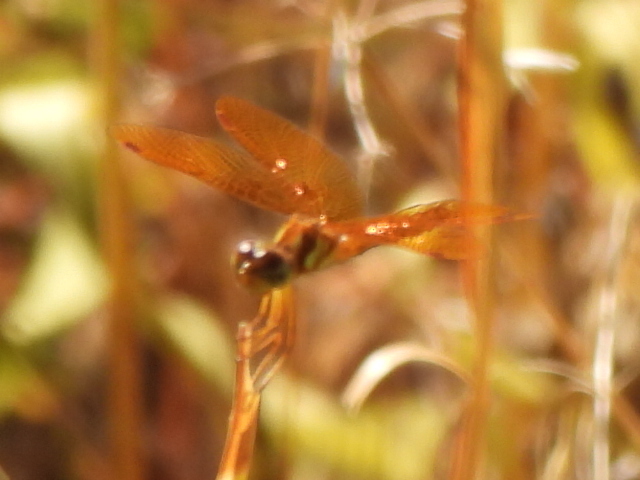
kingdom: Animalia
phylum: Arthropoda
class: Insecta
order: Odonata
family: Libellulidae
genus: Perithemis
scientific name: Perithemis tenera
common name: Eastern amberwing
